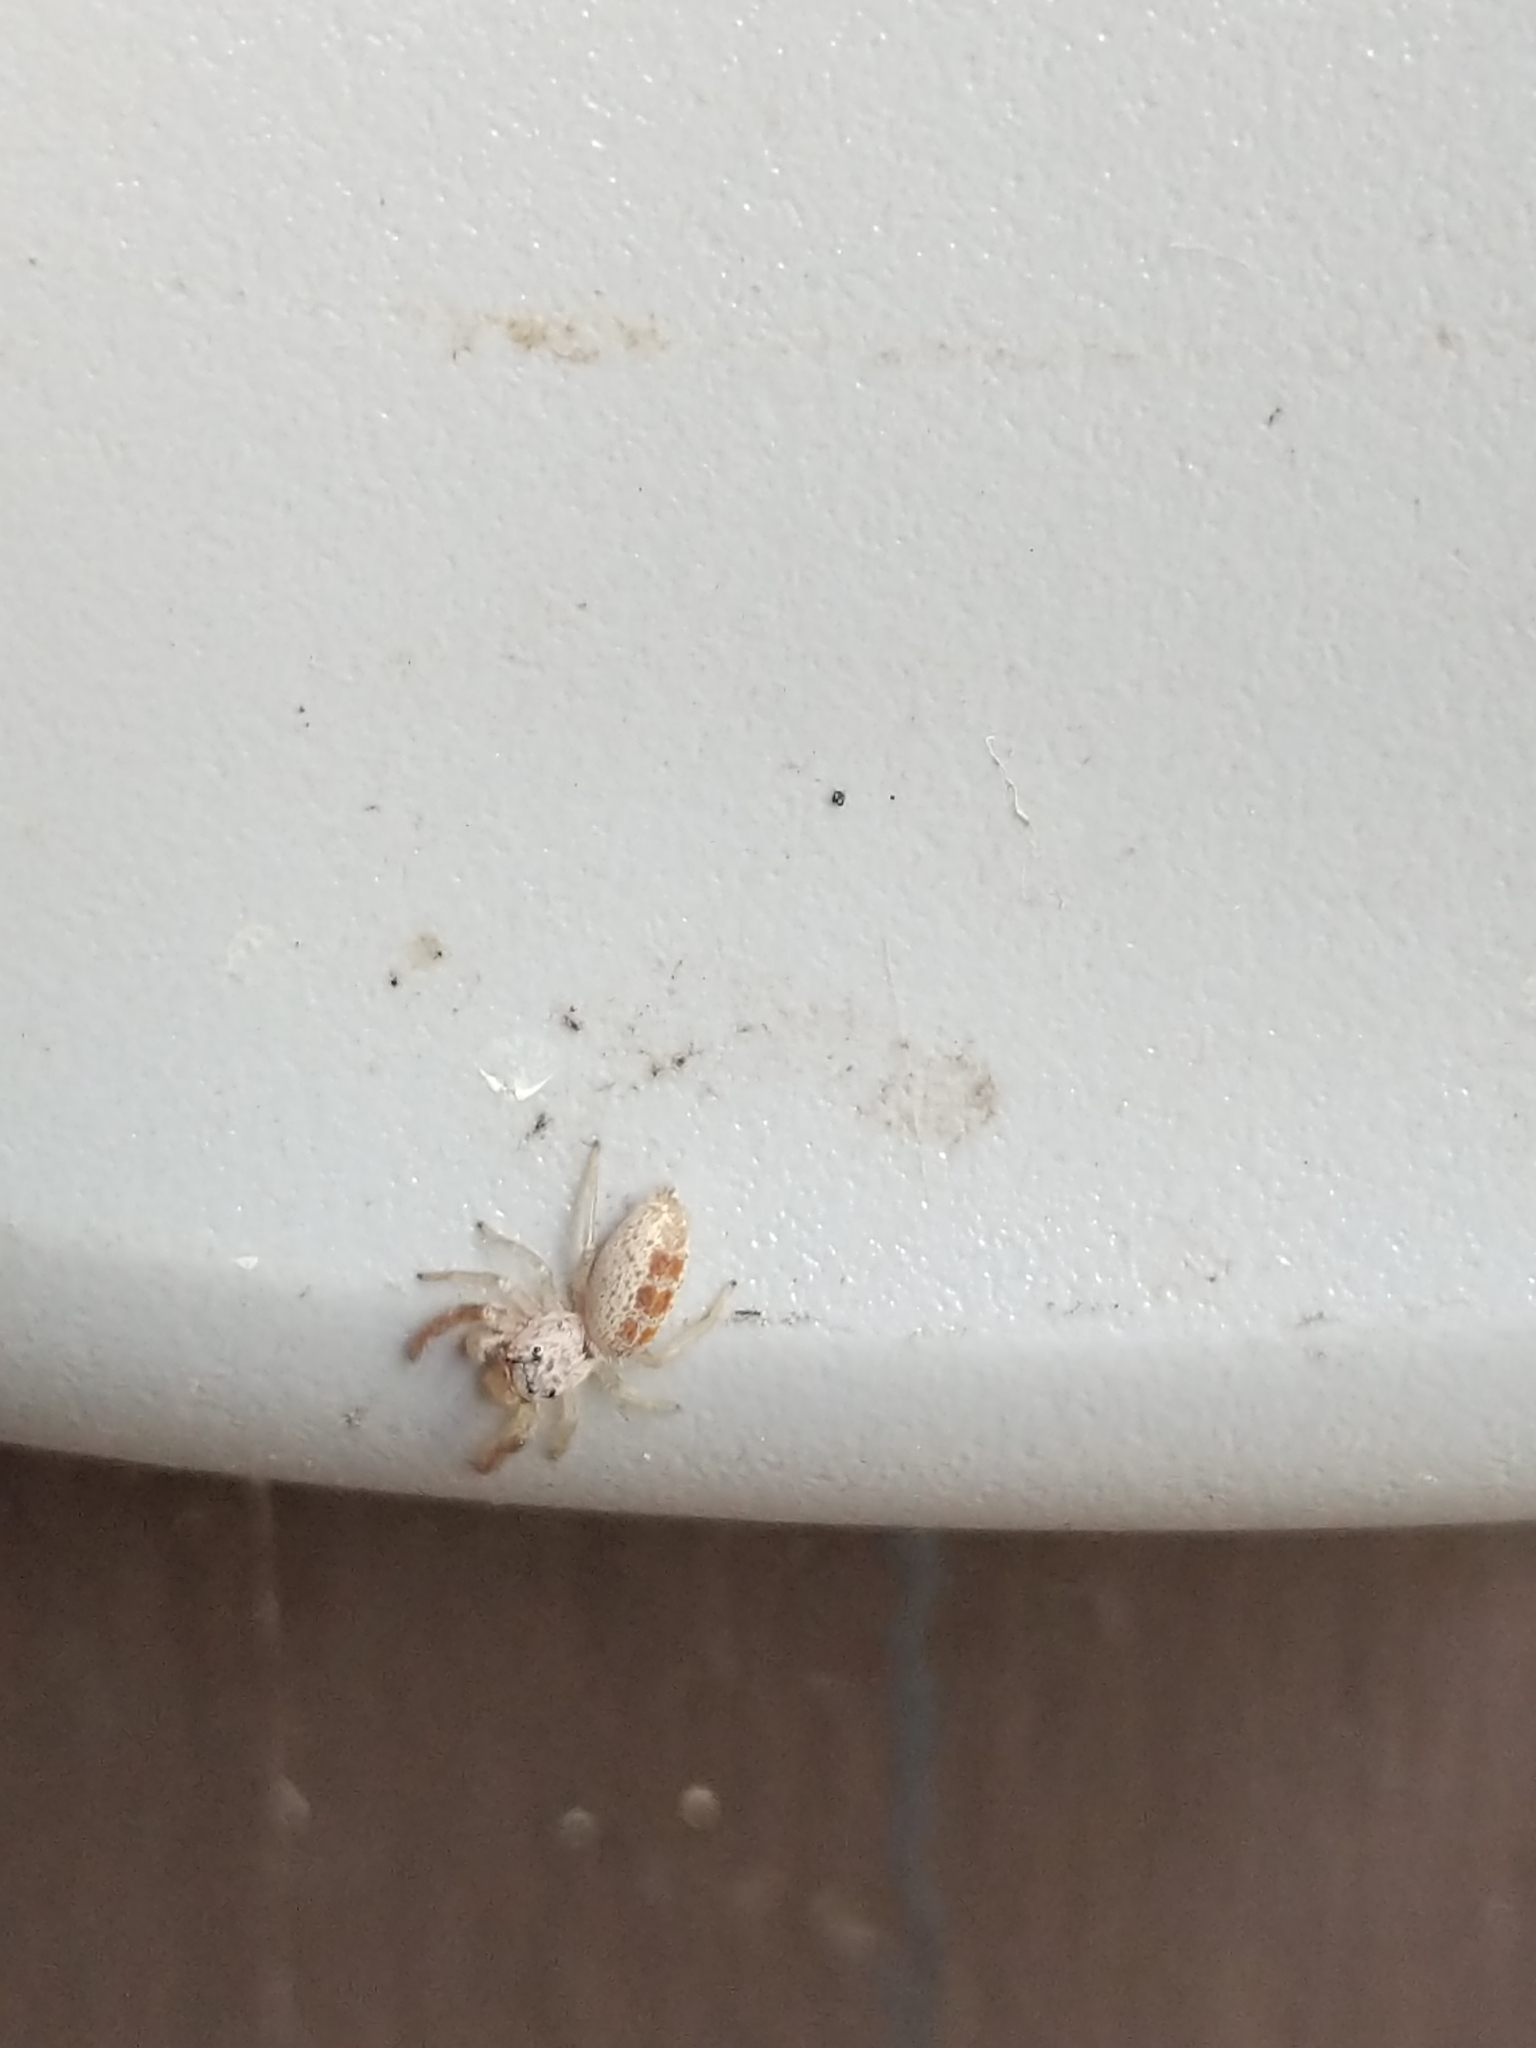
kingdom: Animalia
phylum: Arthropoda
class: Arachnida
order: Araneae
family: Salticidae
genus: Hentzia
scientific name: Hentzia mitrata
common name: White-jawed jumping spider
